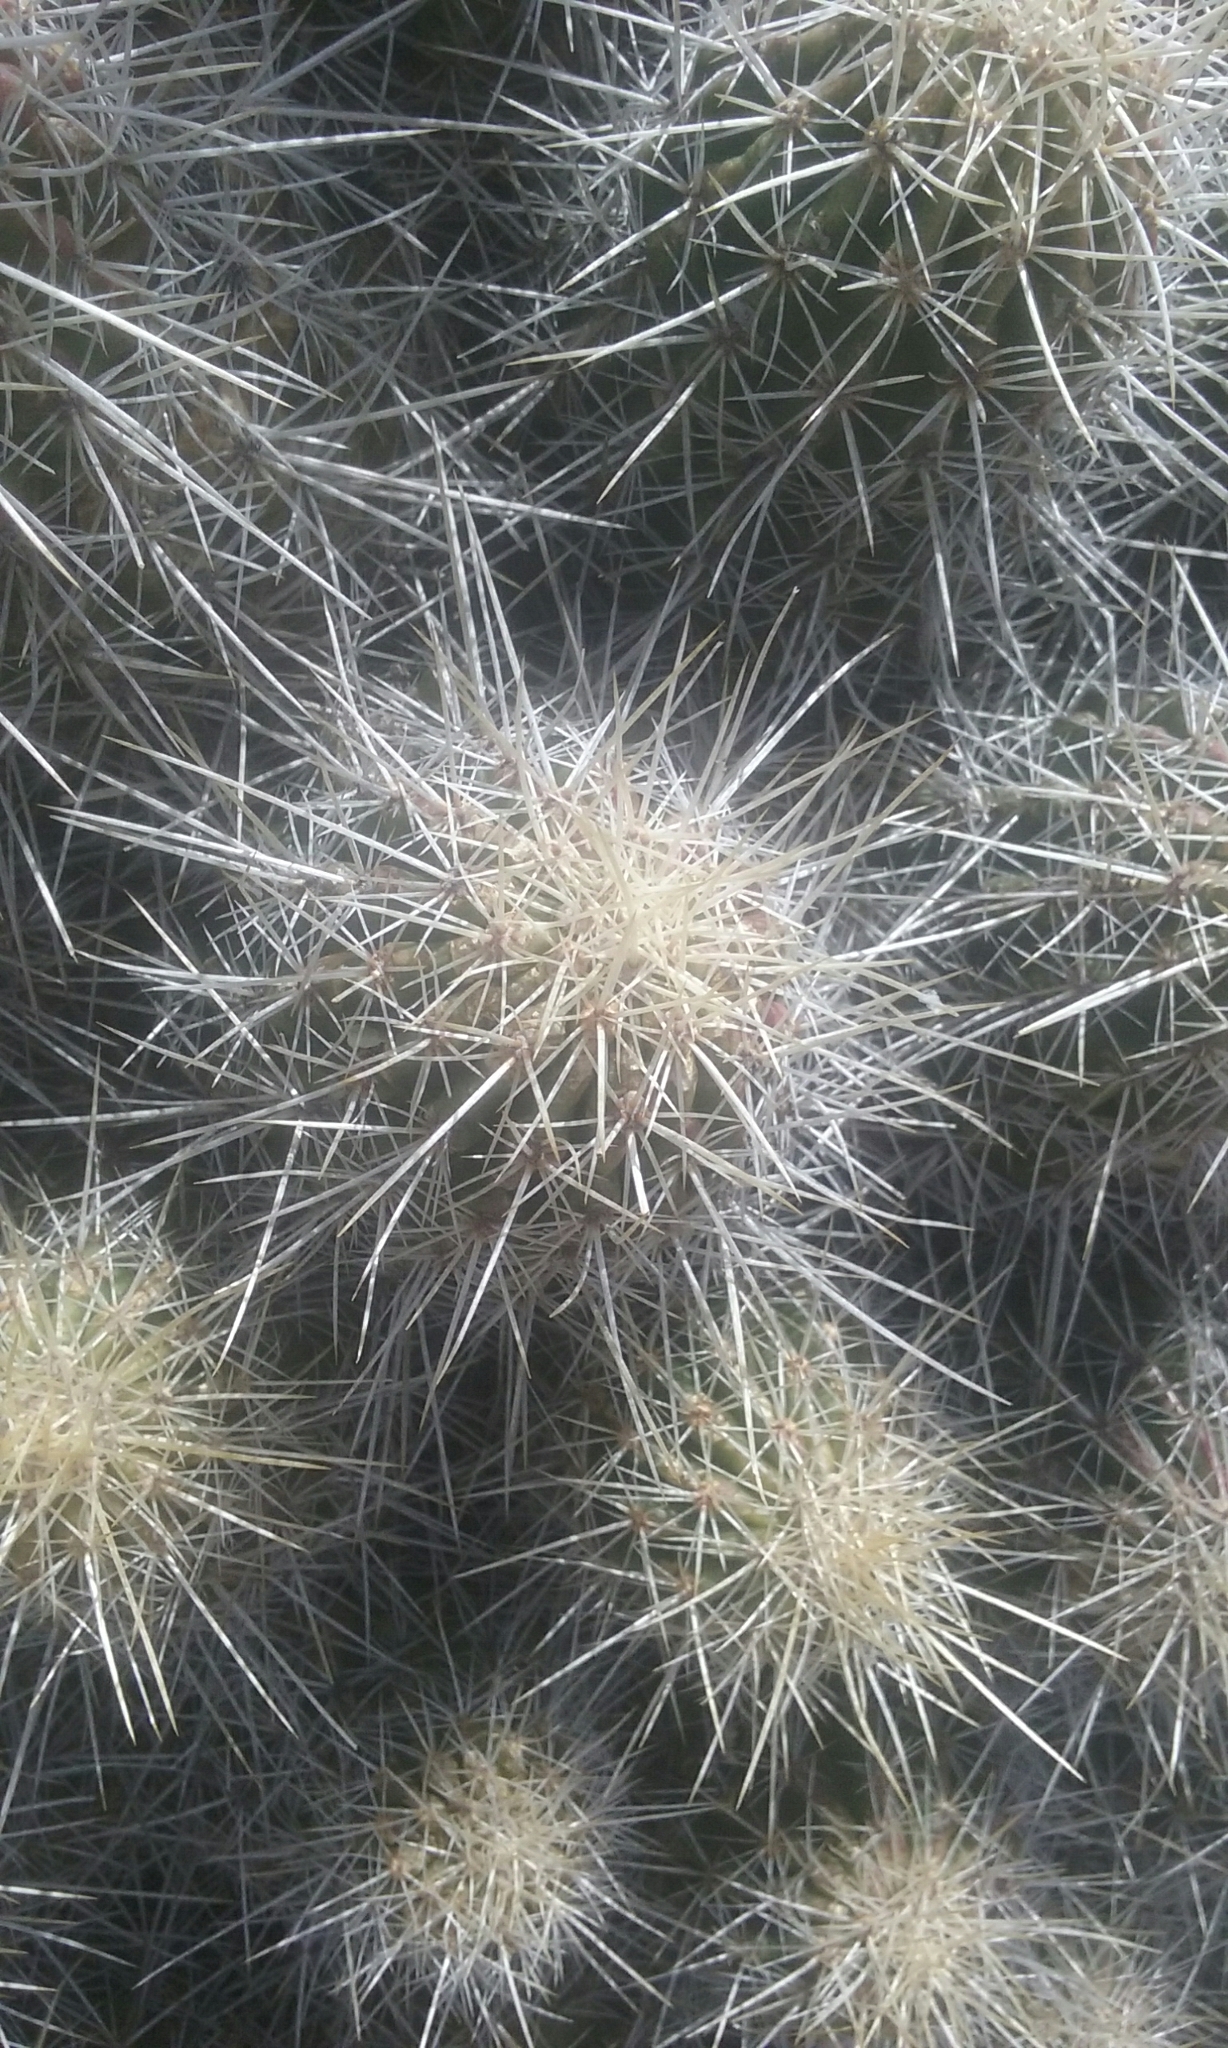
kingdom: Plantae
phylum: Tracheophyta
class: Magnoliopsida
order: Caryophyllales
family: Cactaceae
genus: Echinocereus
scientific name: Echinocereus stramineus
